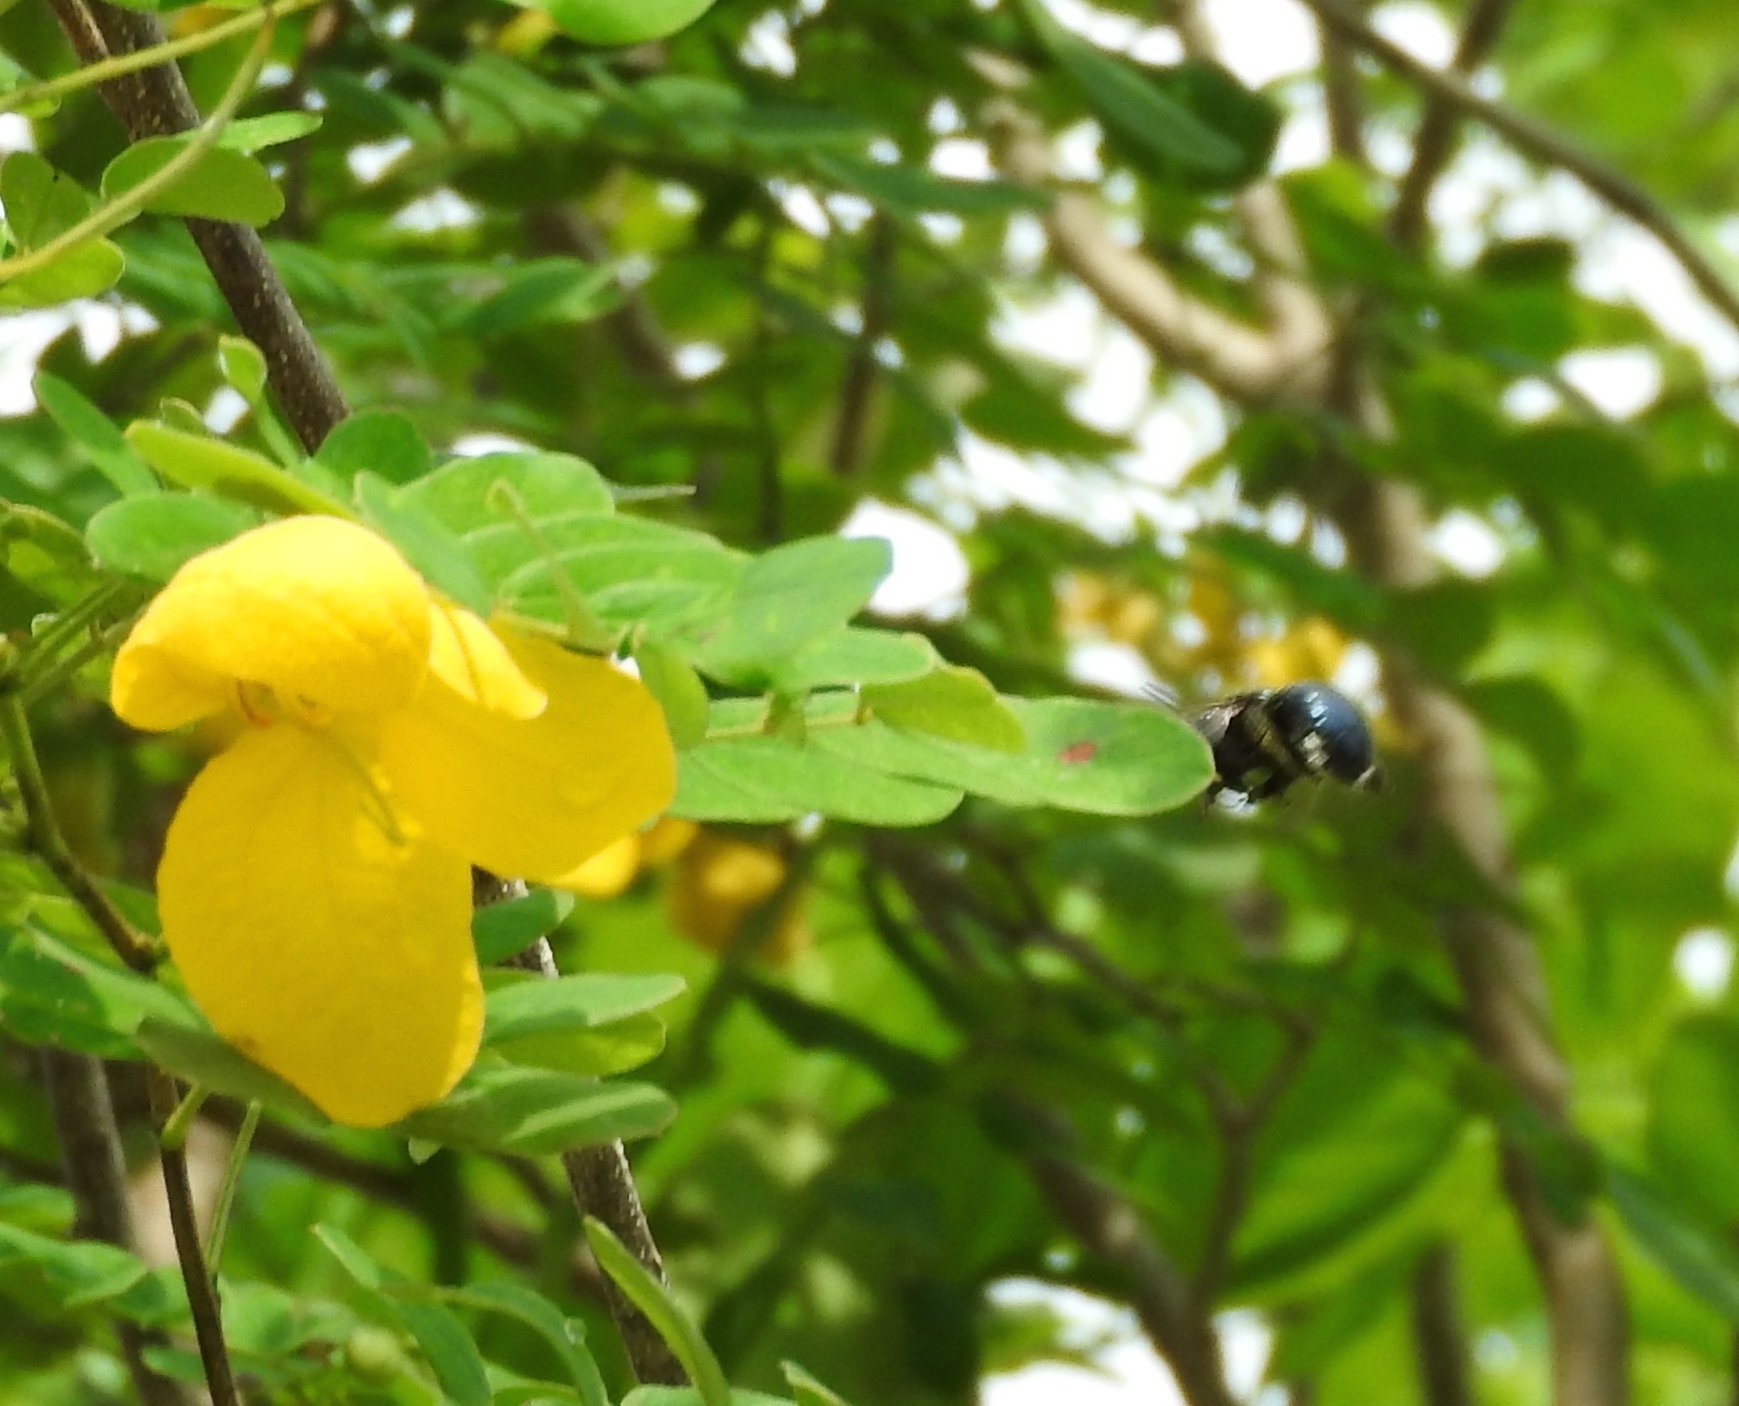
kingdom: Animalia
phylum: Arthropoda
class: Insecta
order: Hymenoptera
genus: Schonnherria
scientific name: Schonnherria
